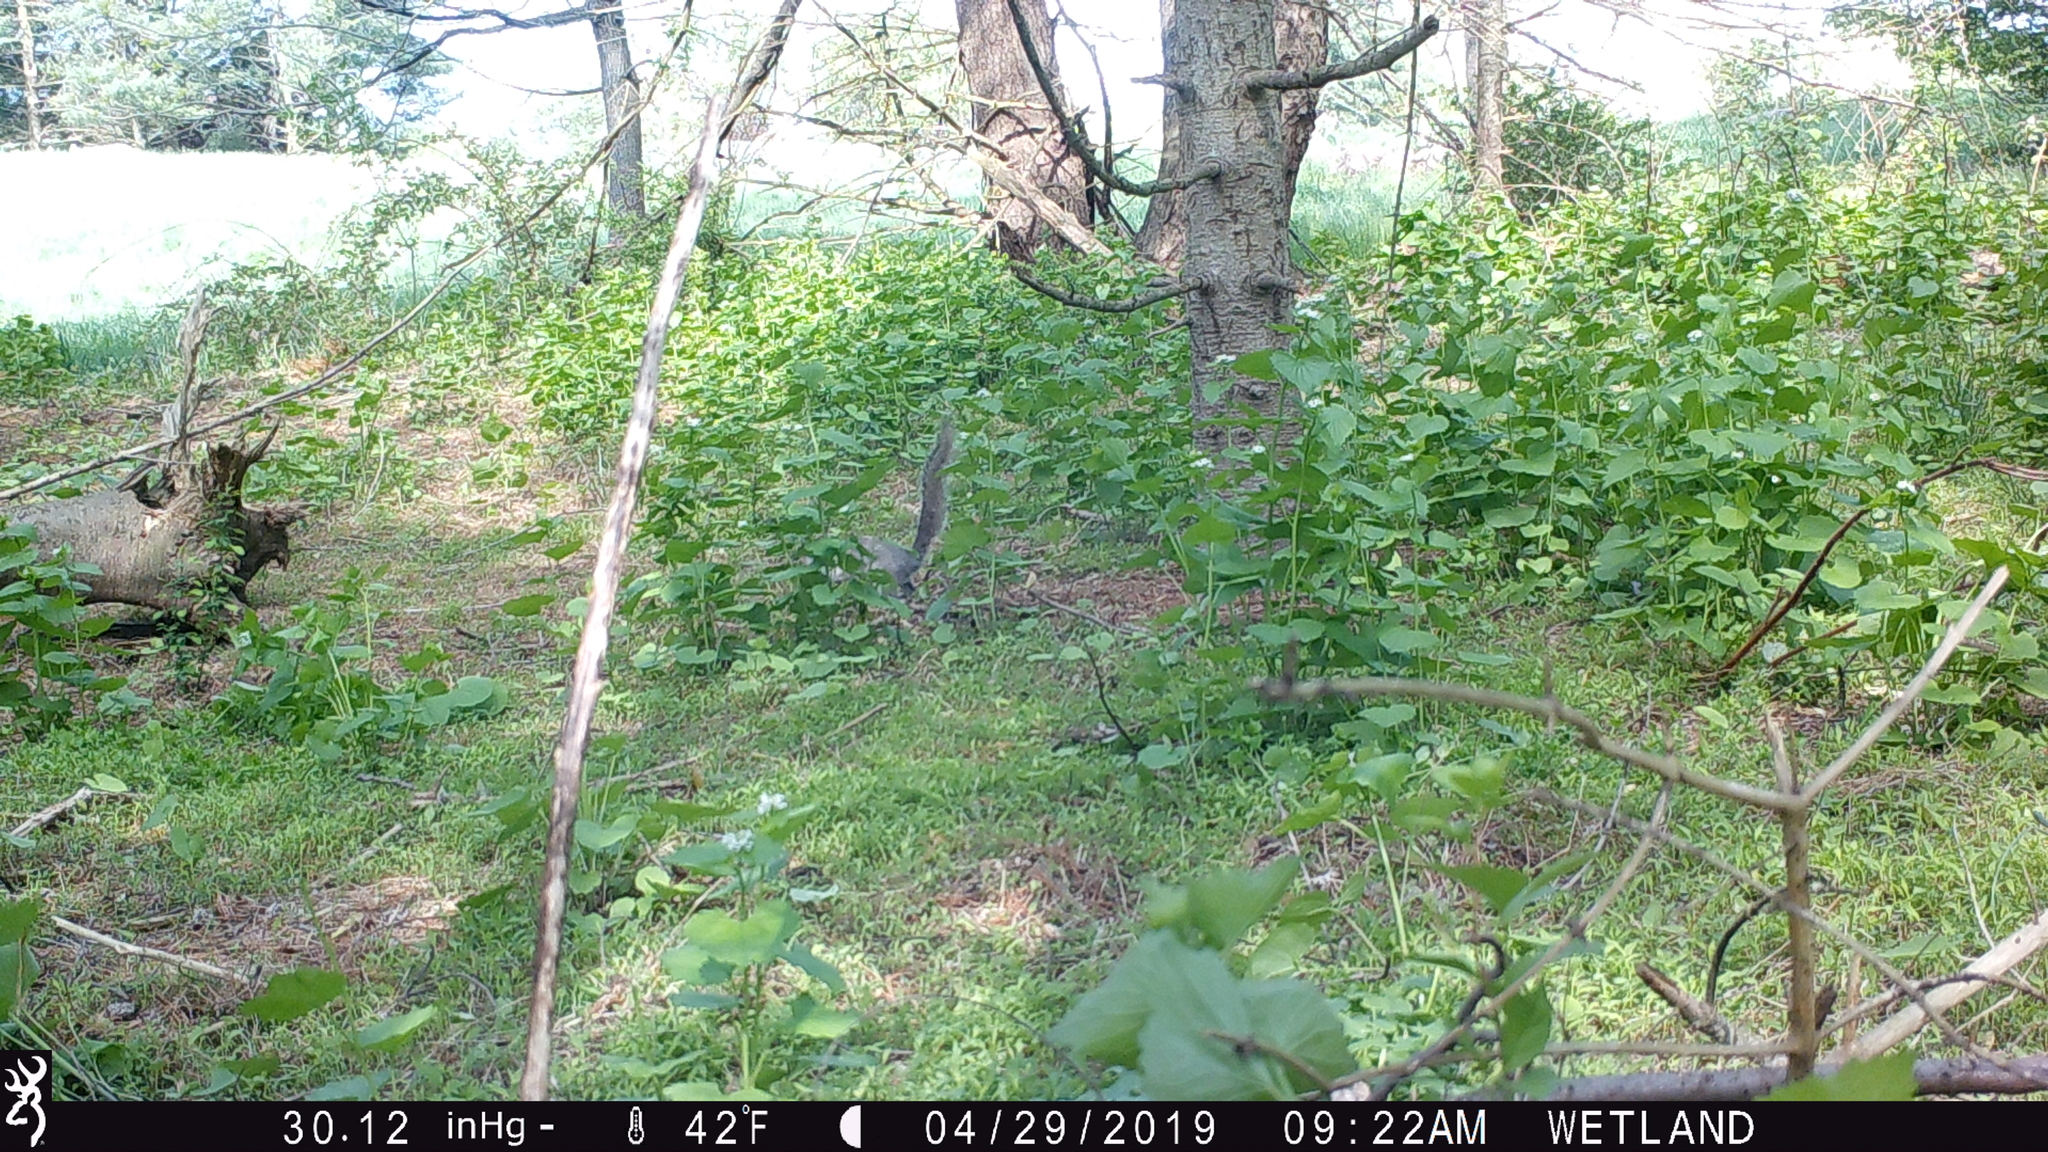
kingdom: Animalia
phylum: Chordata
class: Mammalia
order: Rodentia
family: Sciuridae
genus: Sciurus
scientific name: Sciurus carolinensis
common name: Eastern gray squirrel
